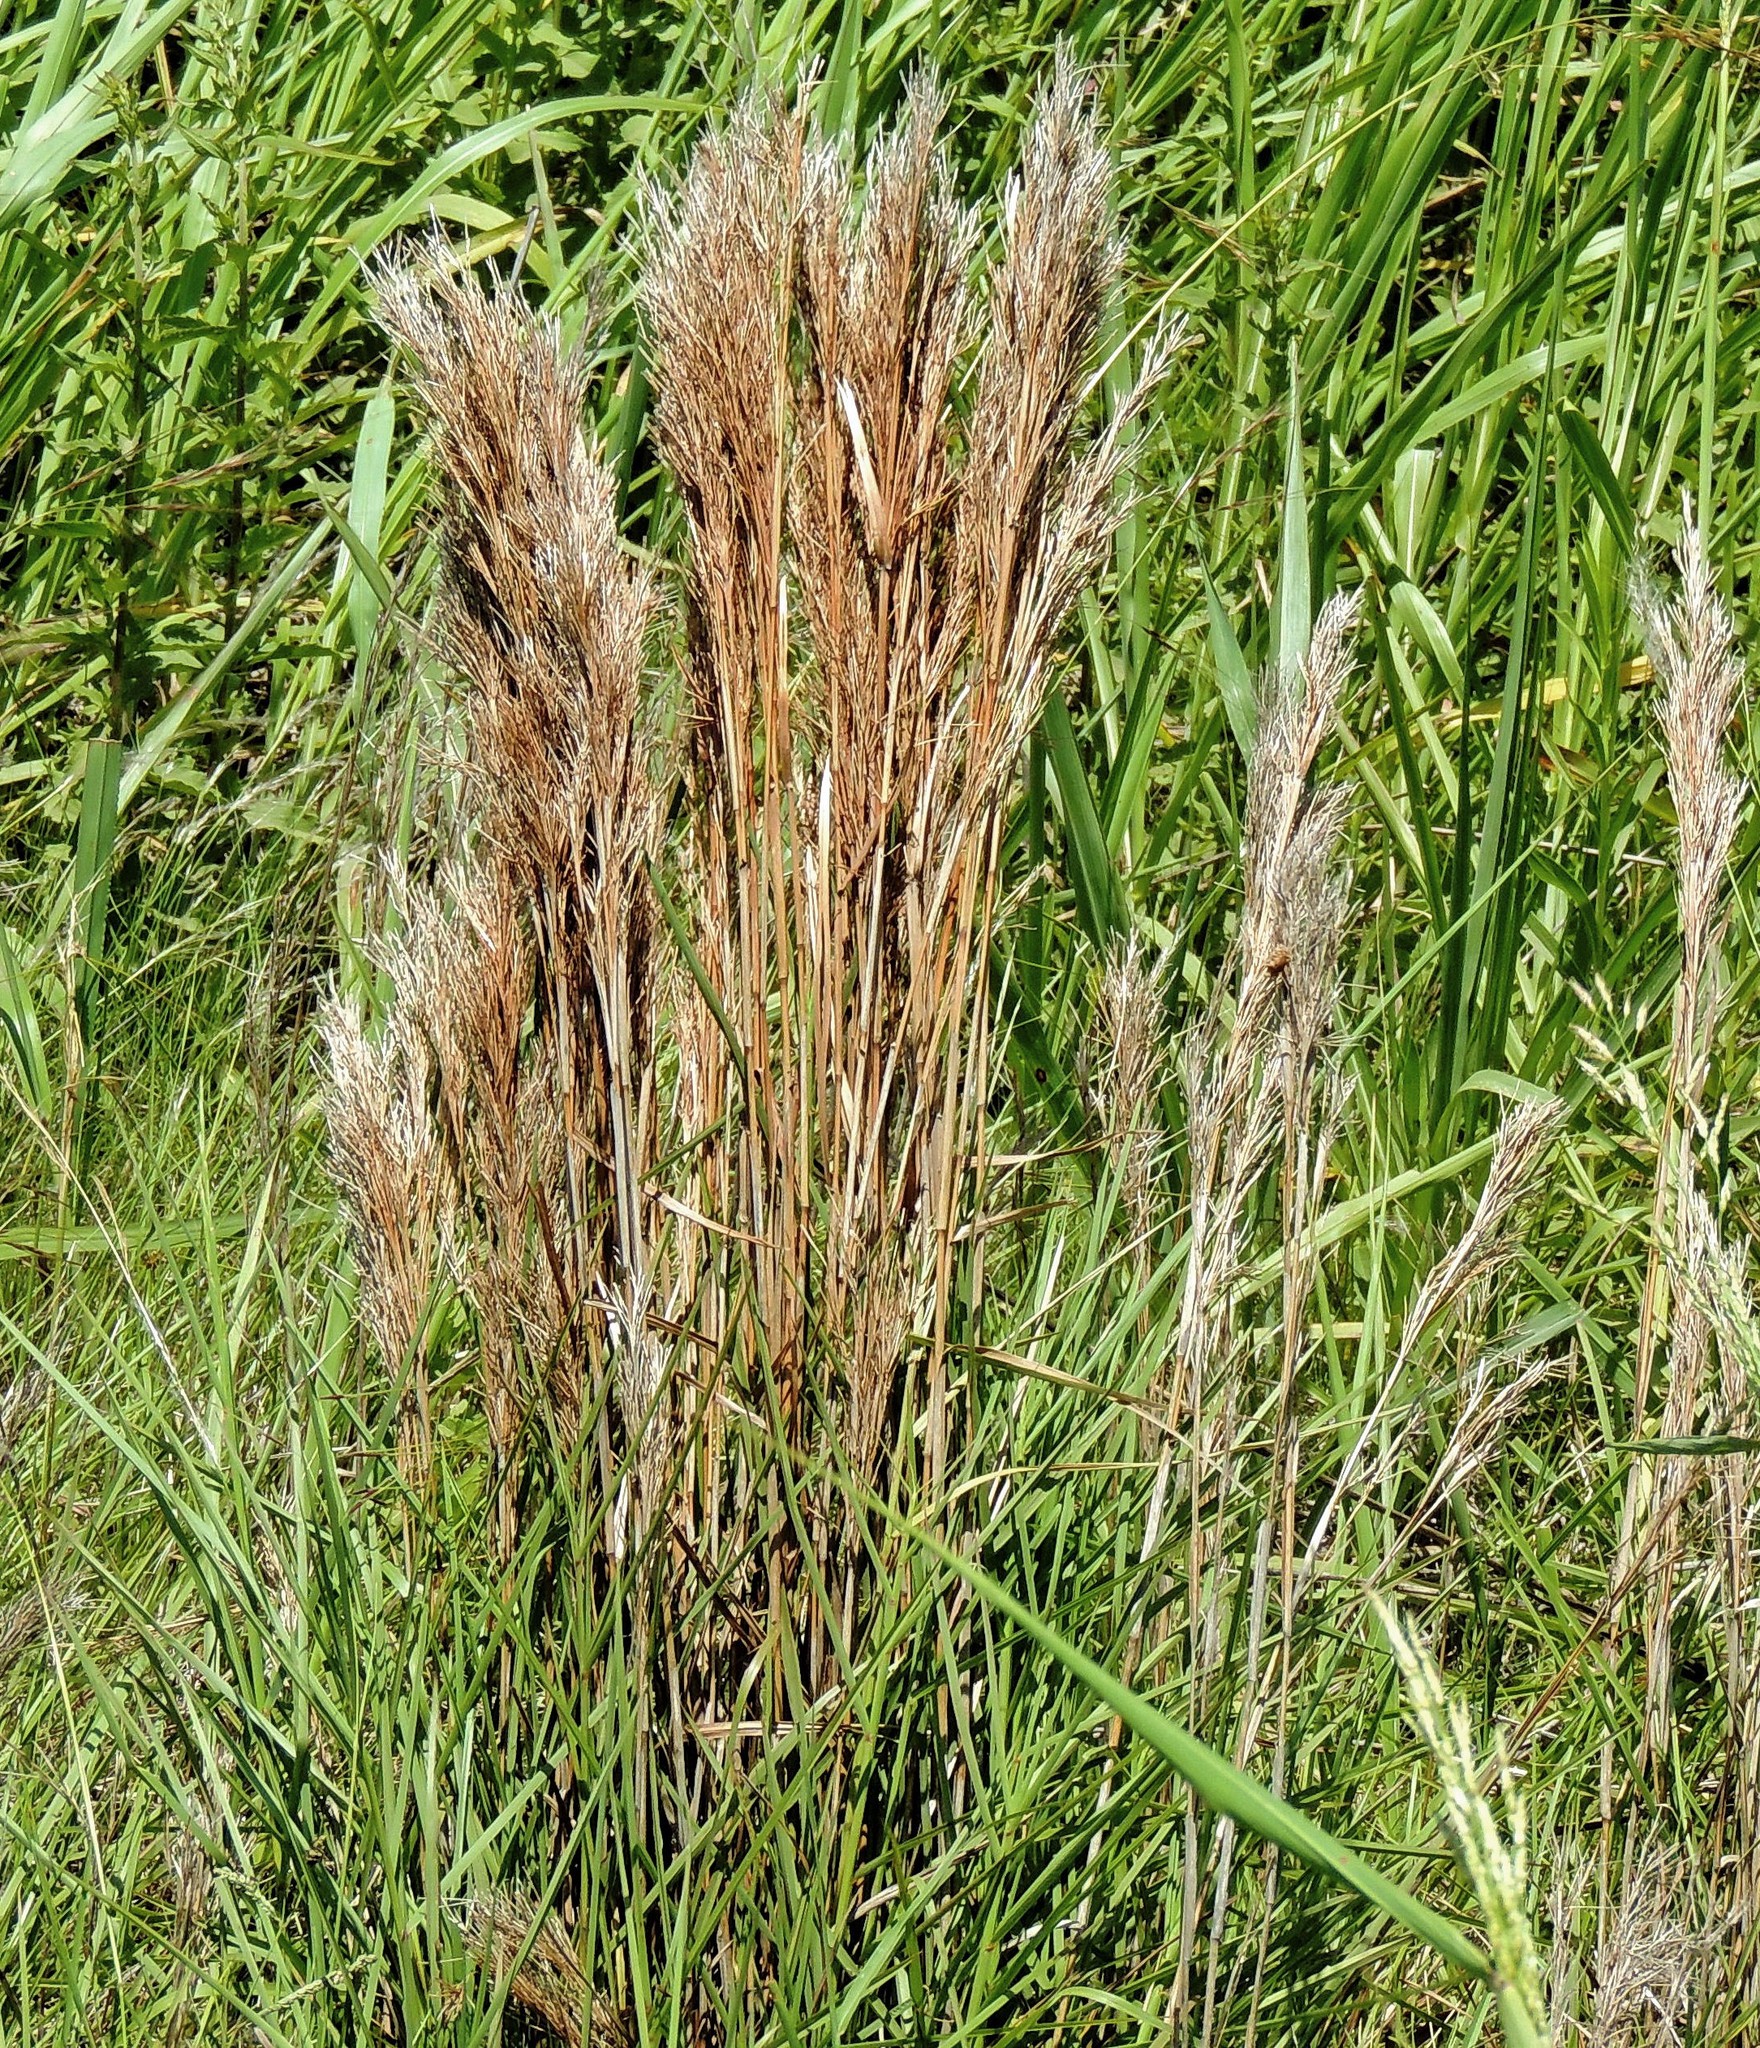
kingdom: Plantae
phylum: Tracheophyta
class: Liliopsida
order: Poales
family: Poaceae
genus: Schizachyrium
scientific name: Schizachyrium microstachyum
